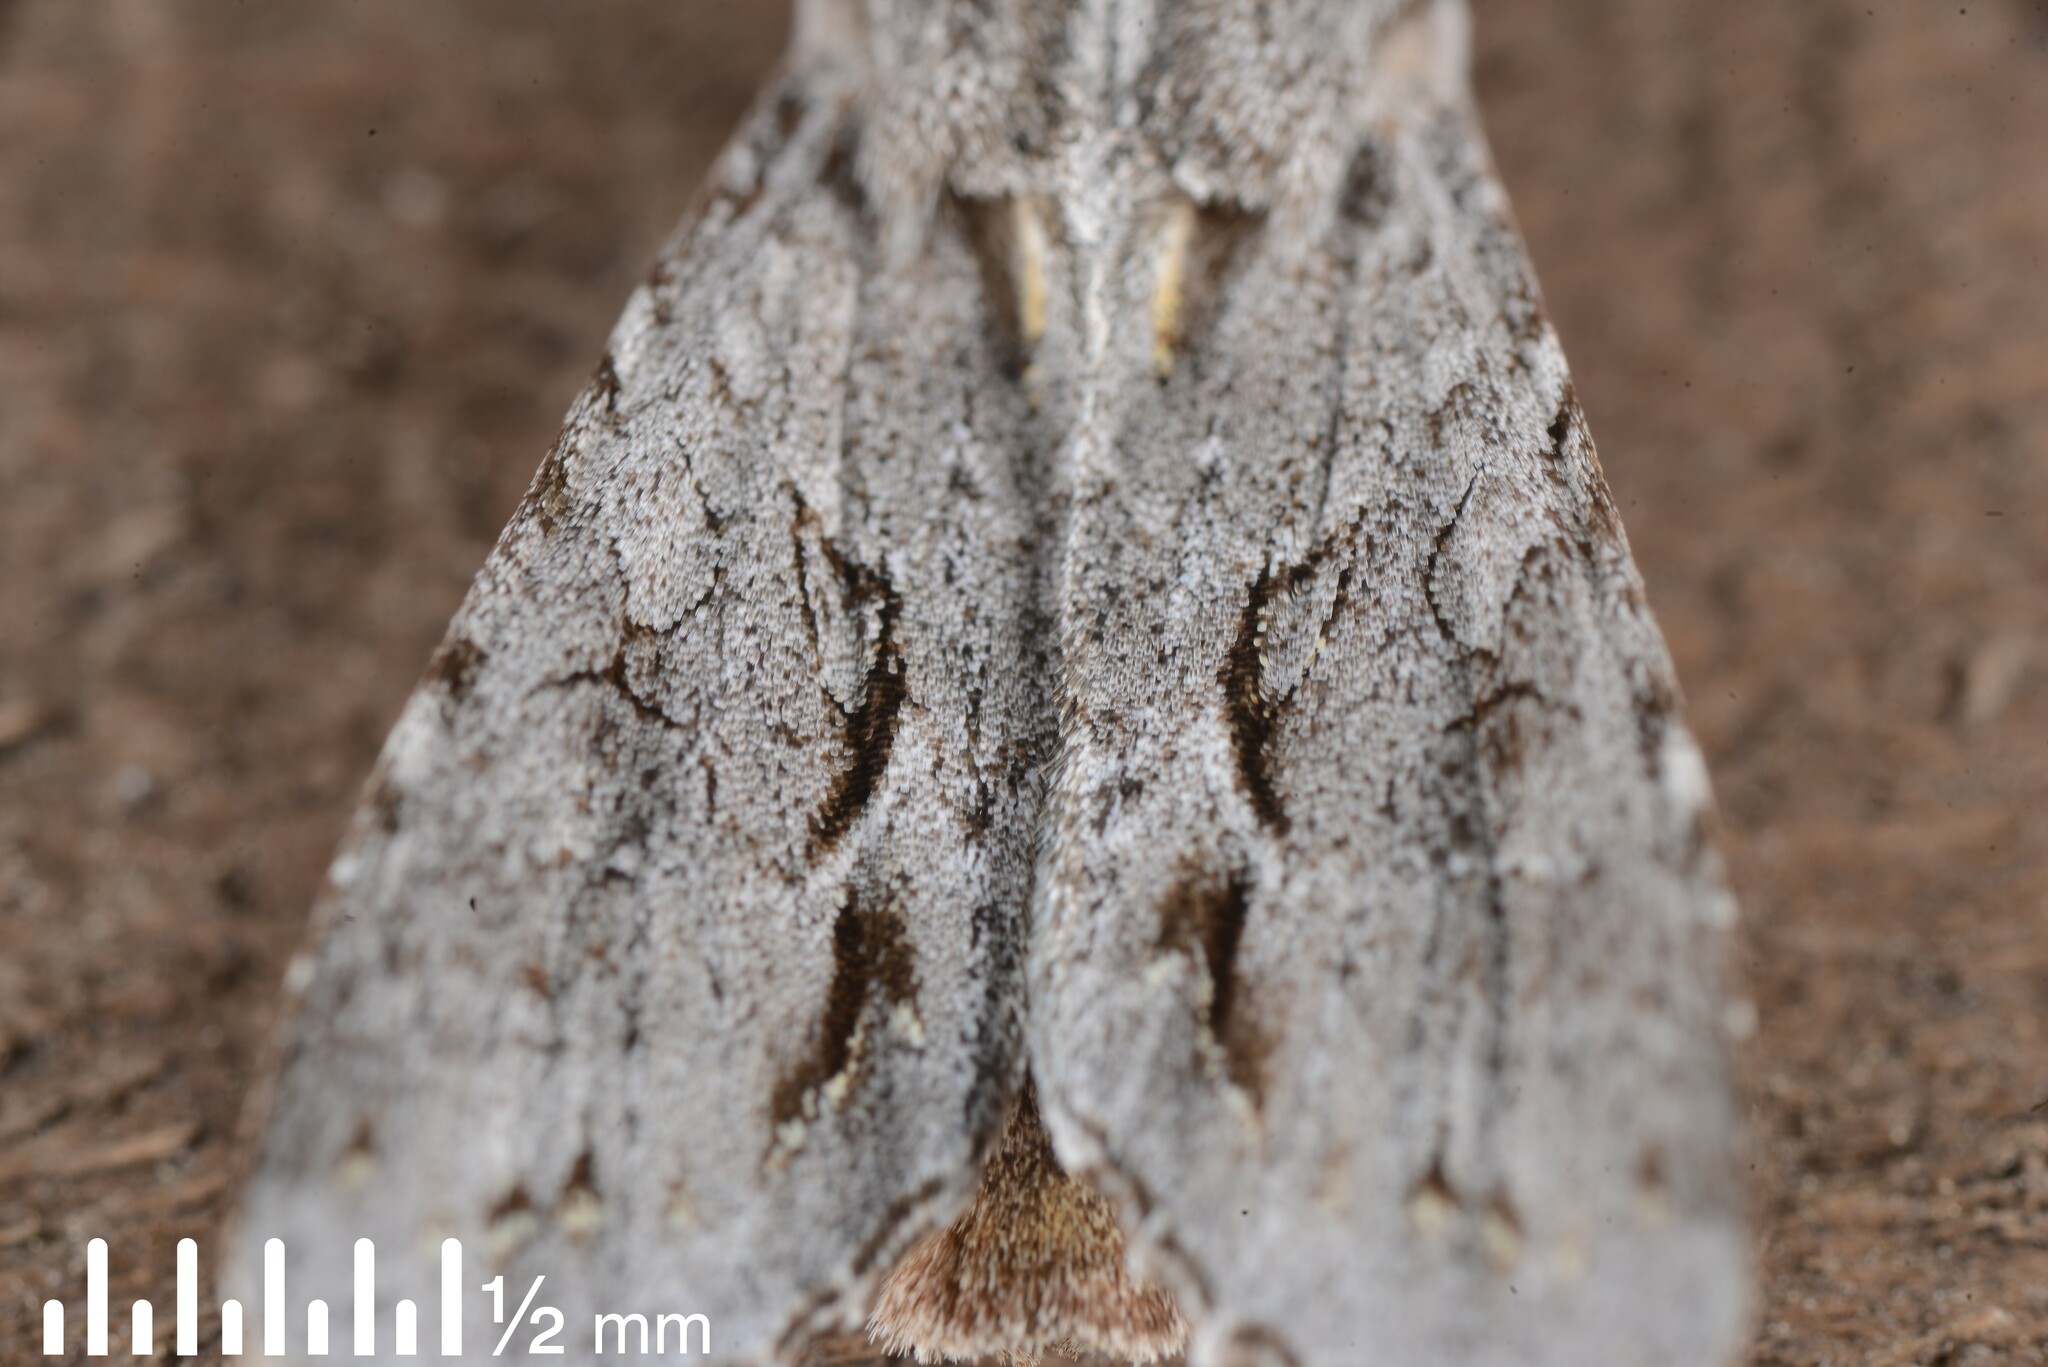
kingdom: Animalia
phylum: Arthropoda
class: Insecta
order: Lepidoptera
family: Noctuidae
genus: Ichneutica
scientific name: Ichneutica
